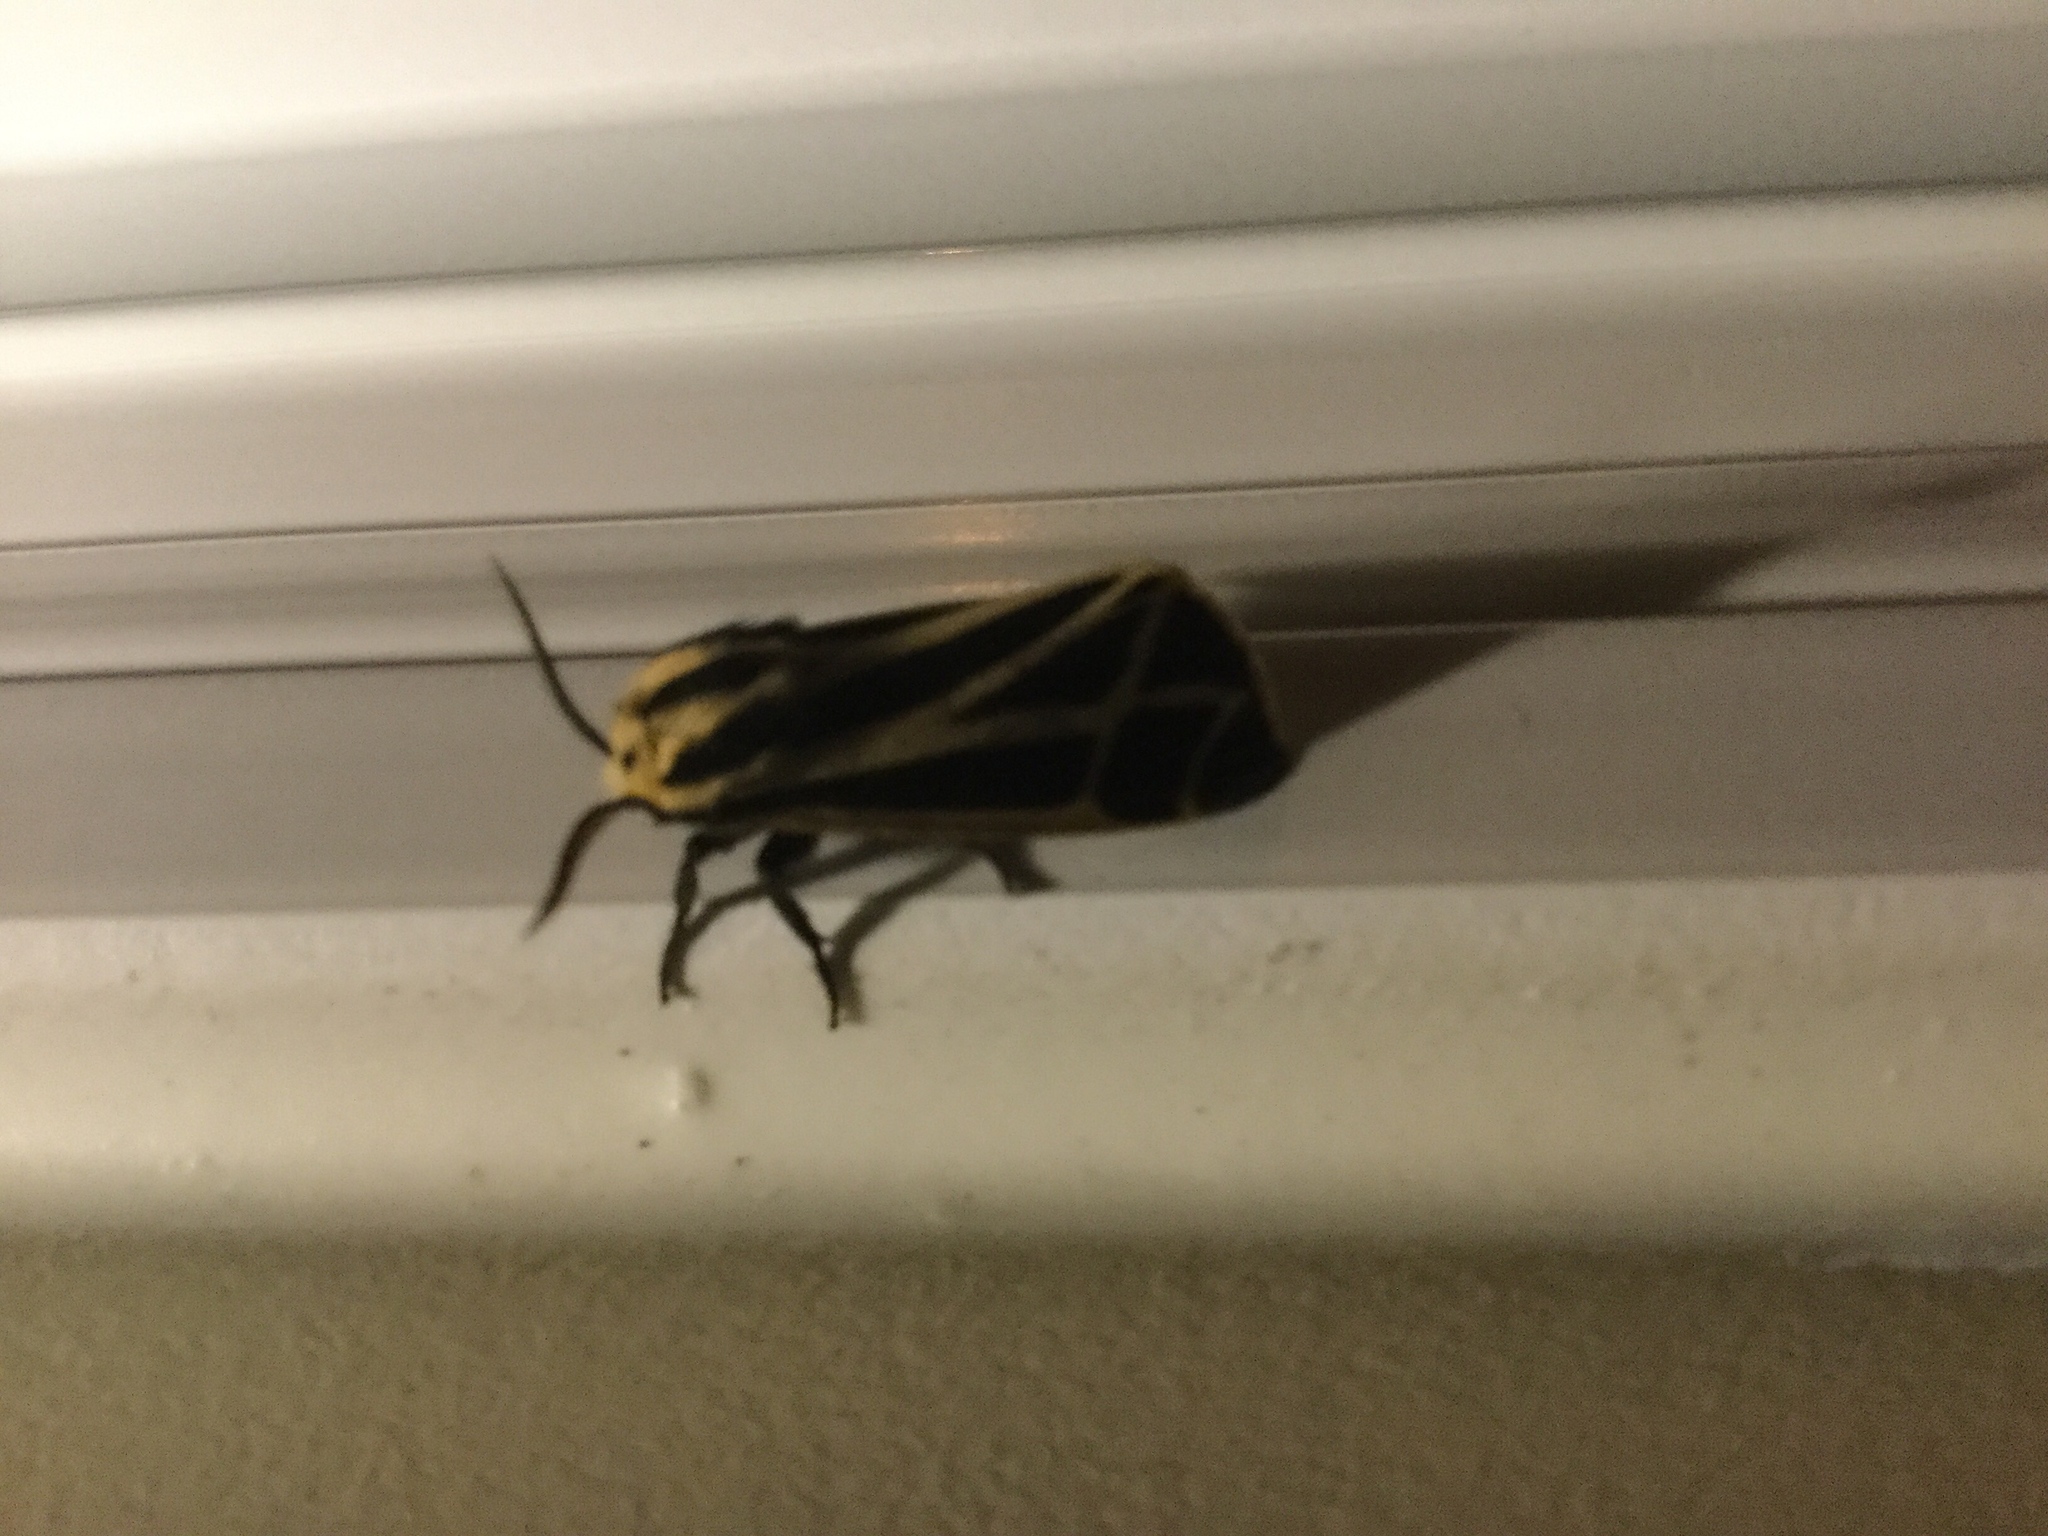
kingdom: Animalia
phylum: Arthropoda
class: Insecta
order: Lepidoptera
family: Erebidae
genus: Apantesis
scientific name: Apantesis
